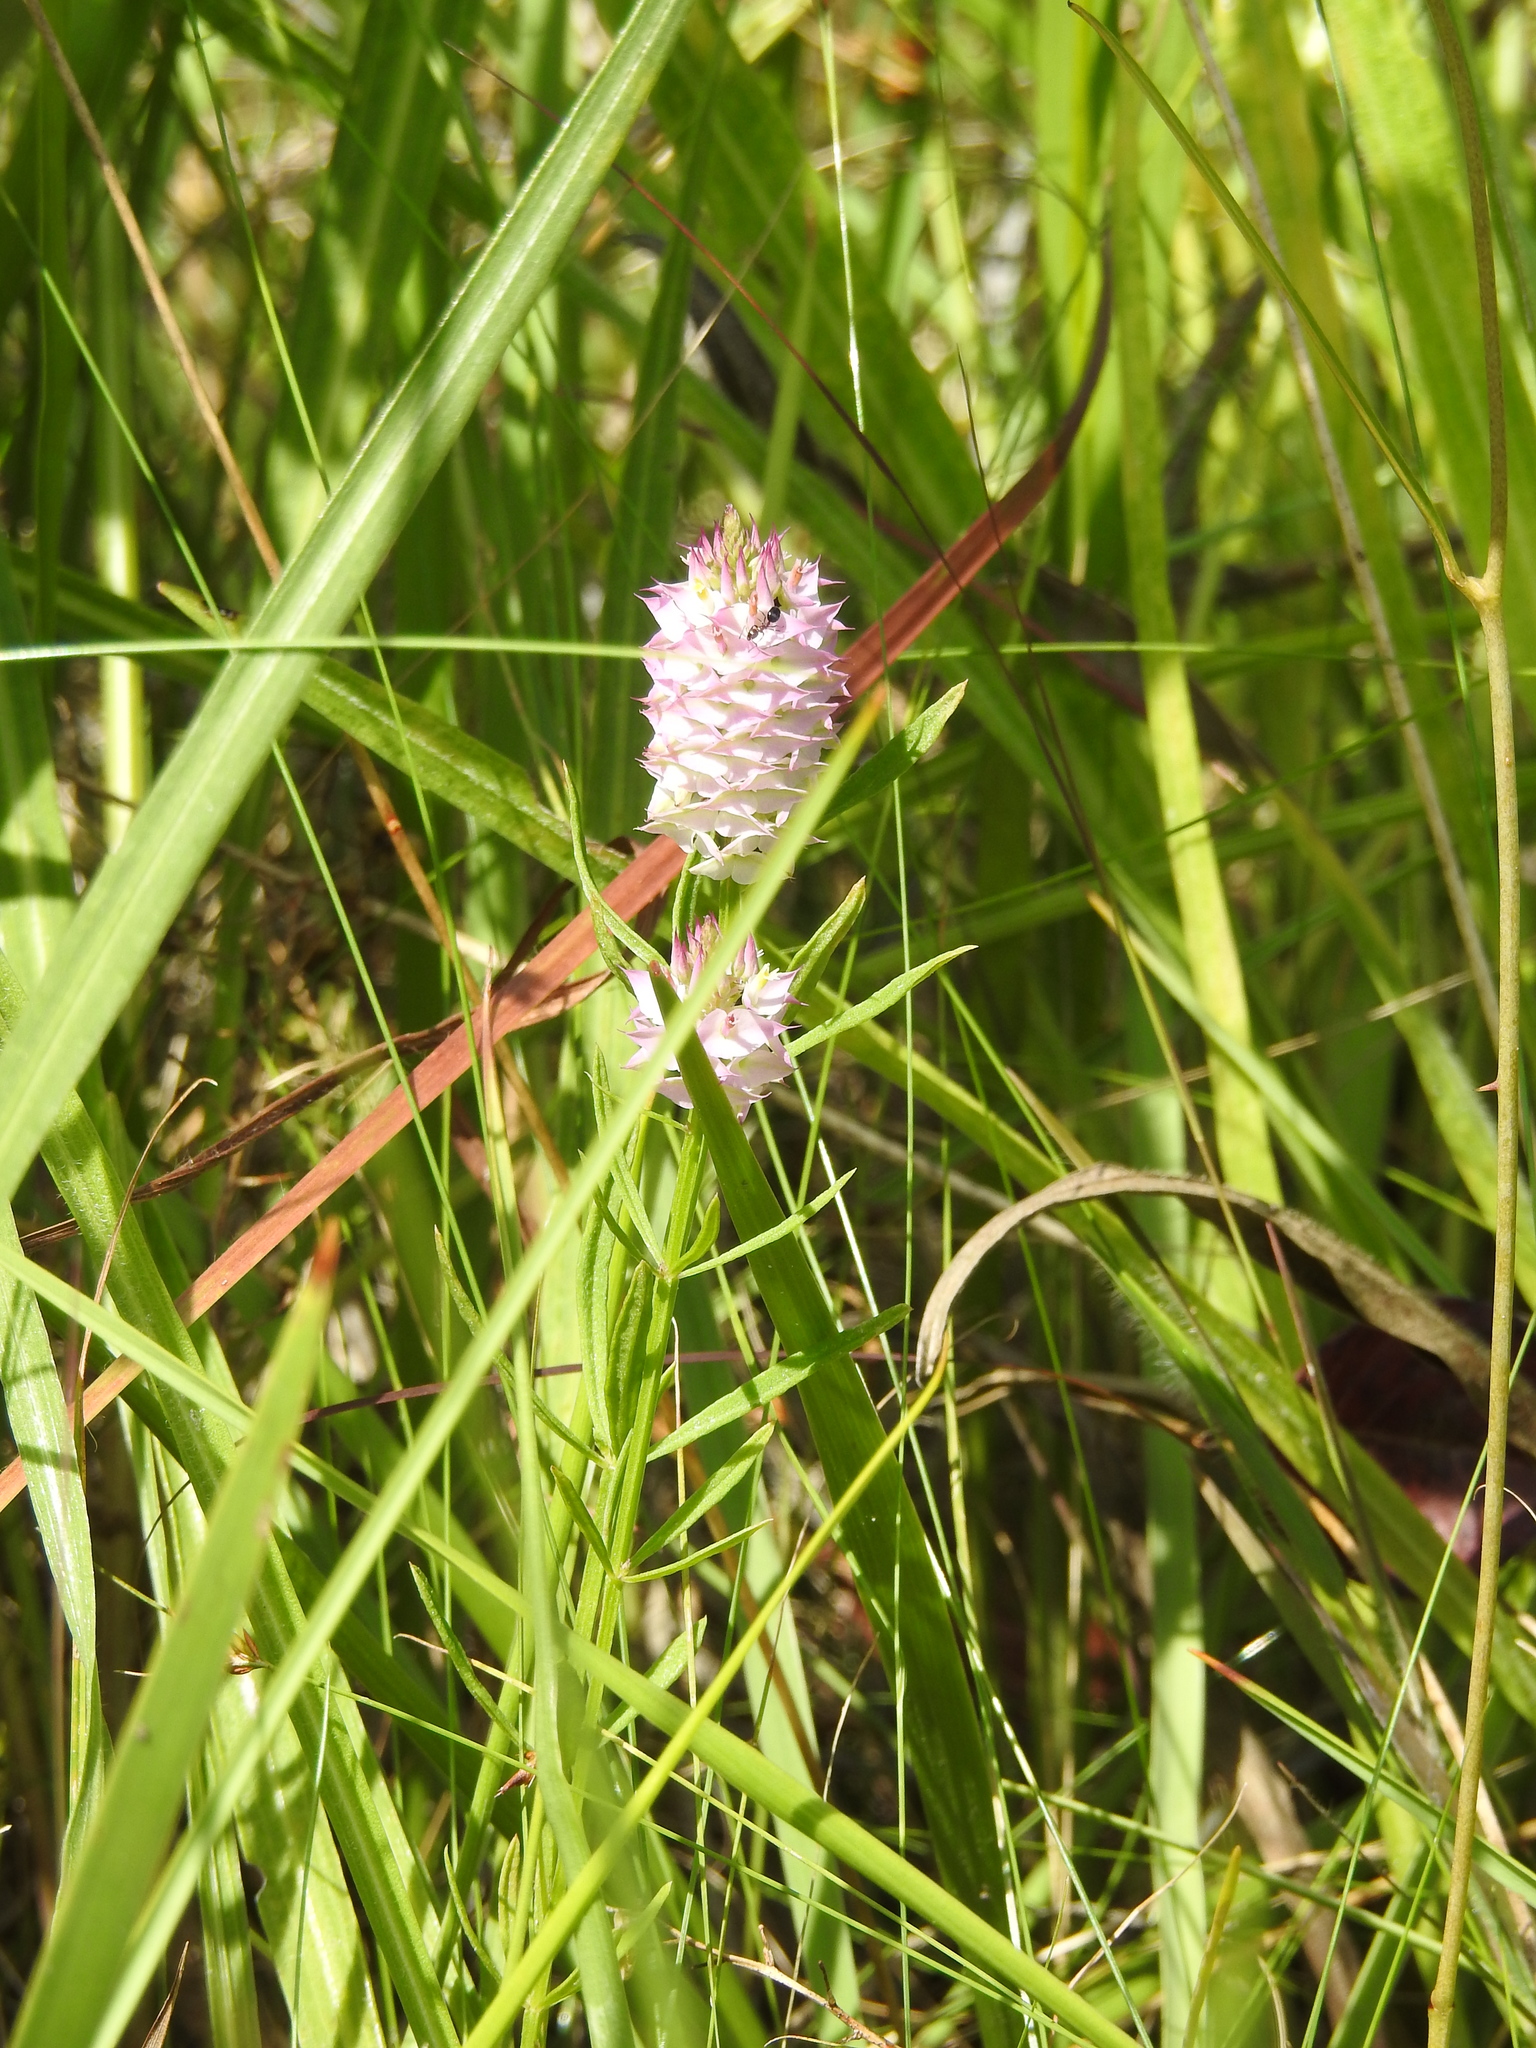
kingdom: Plantae
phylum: Tracheophyta
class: Magnoliopsida
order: Fabales
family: Polygalaceae
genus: Polygala
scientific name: Polygala cruciata
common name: Drumheads
